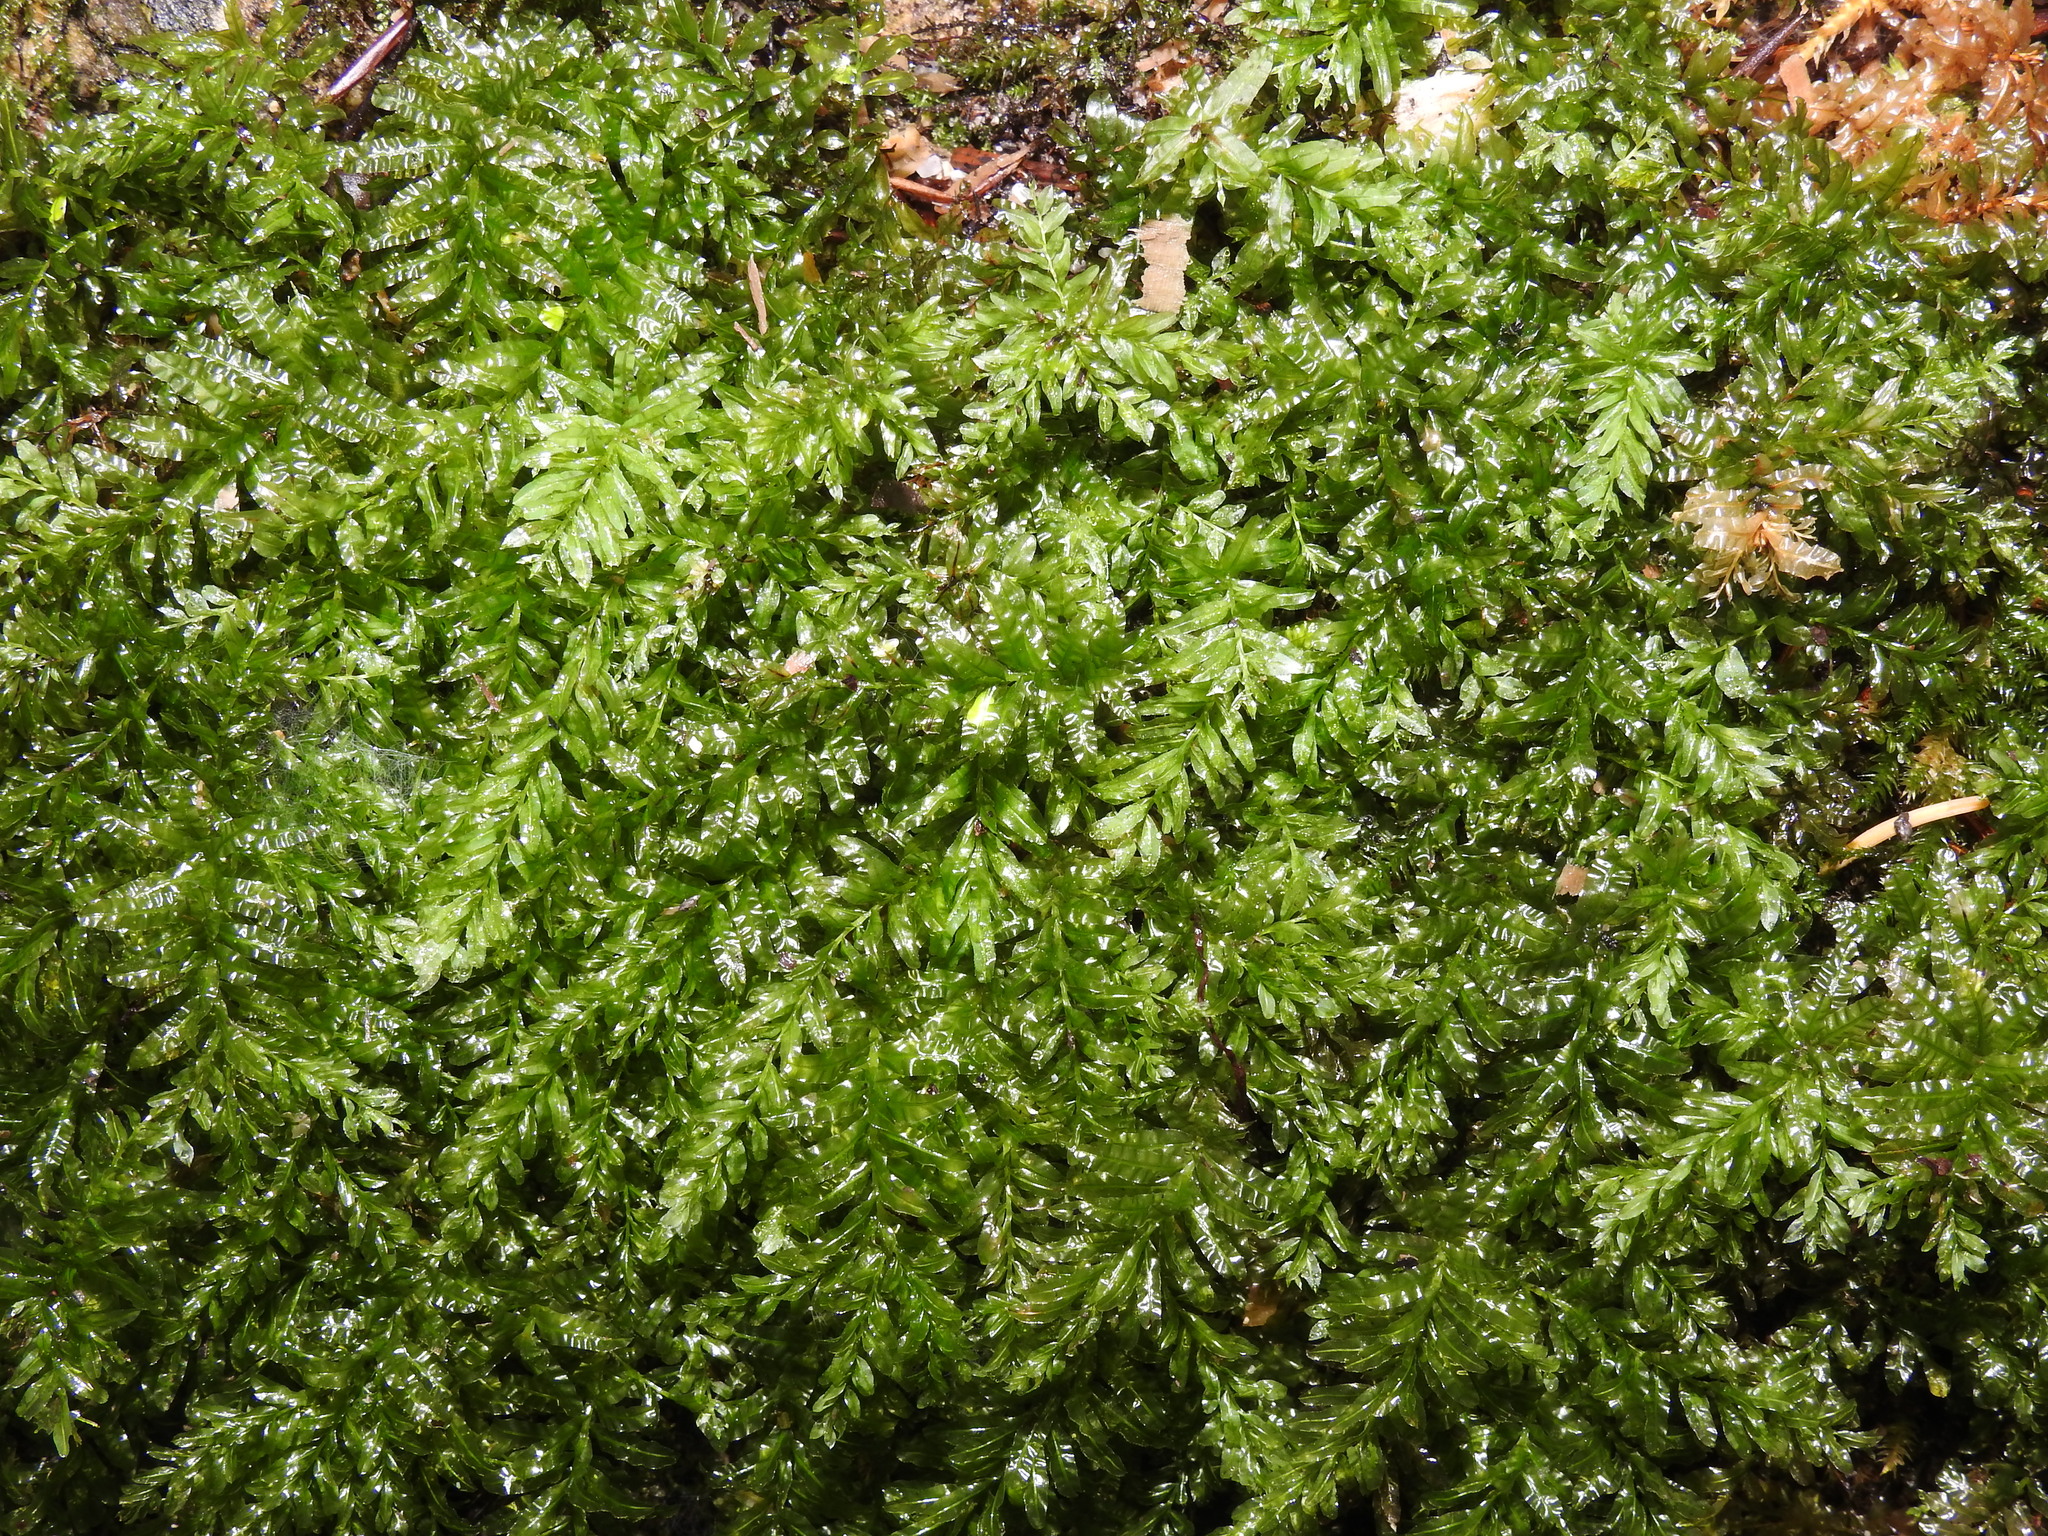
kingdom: Plantae
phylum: Bryophyta
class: Bryopsida
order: Bryales
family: Mniaceae
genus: Plagiomnium
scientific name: Plagiomnium undulatum
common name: Hart's-tongue thyme-moss
